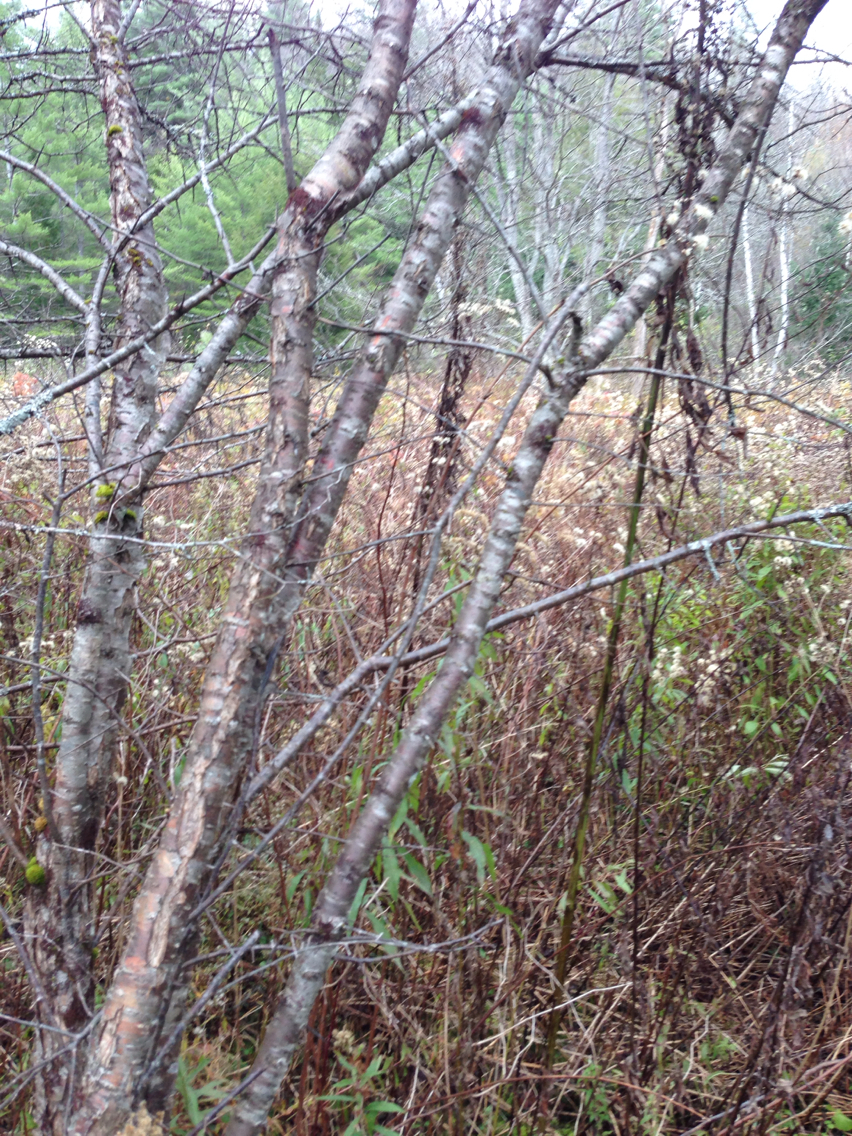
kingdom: Plantae
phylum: Tracheophyta
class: Magnoliopsida
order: Rosales
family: Rhamnaceae
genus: Rhamnus
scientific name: Rhamnus cathartica
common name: Common buckthorn
